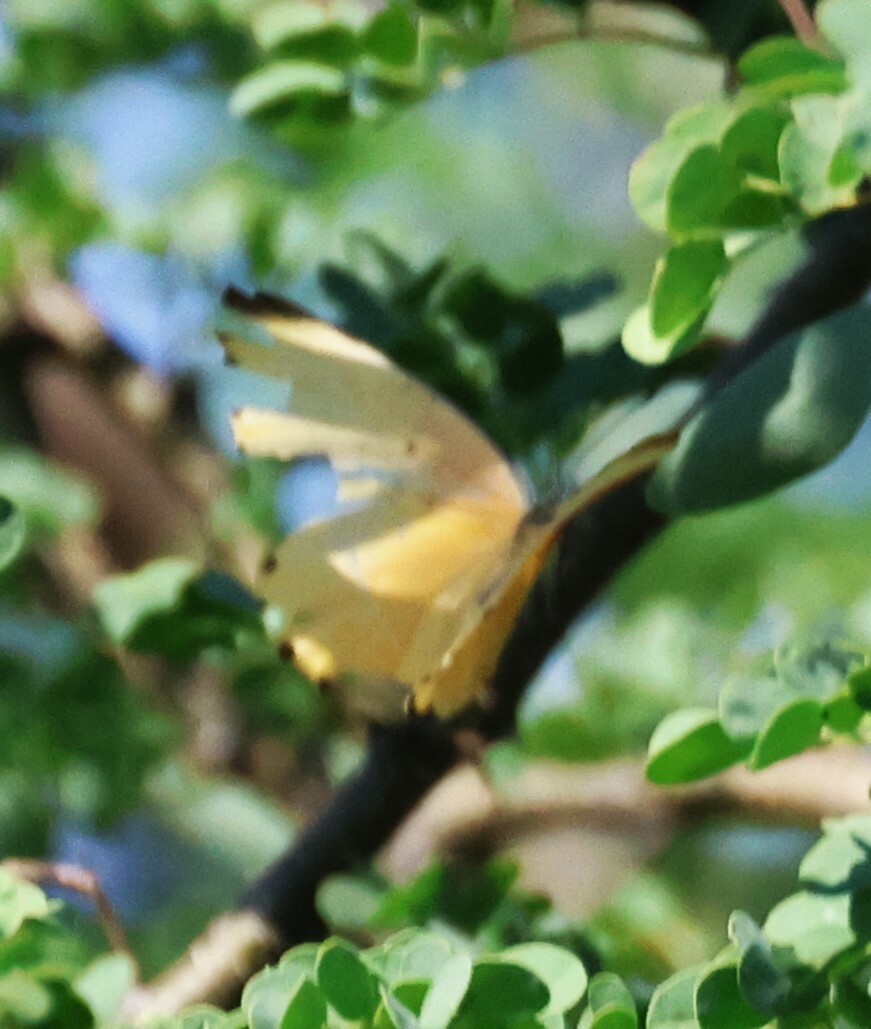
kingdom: Animalia
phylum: Arthropoda
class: Insecta
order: Lepidoptera
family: Pieridae
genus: Mylothris
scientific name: Mylothris agathina
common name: Eastern dotted border
